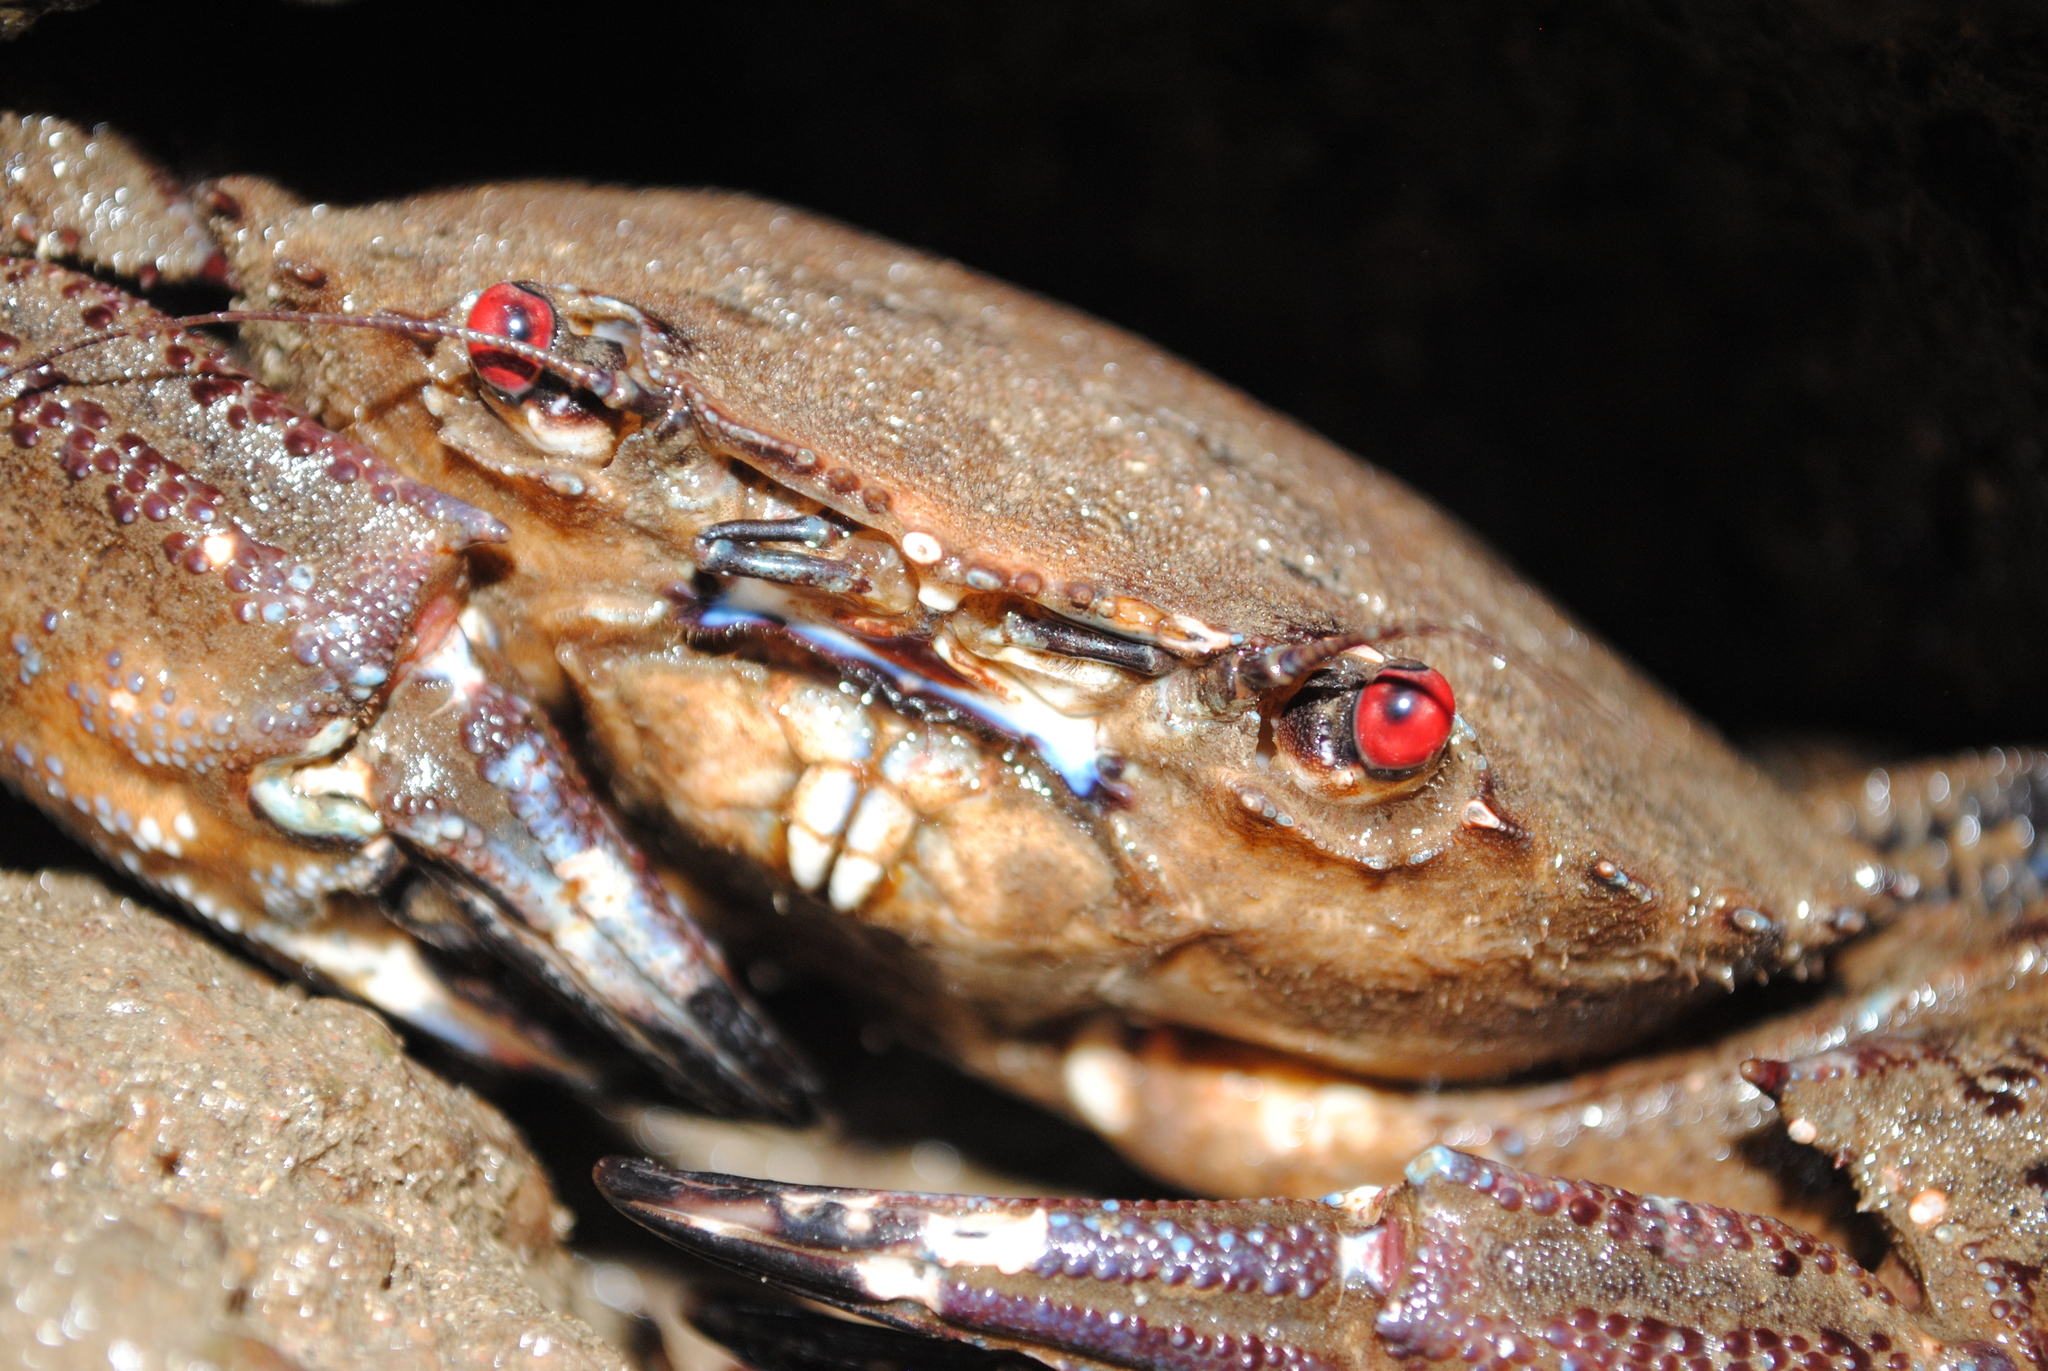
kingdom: Animalia
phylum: Arthropoda
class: Malacostraca
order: Decapoda
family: Polybiidae
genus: Necora
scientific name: Necora puber
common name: Velvet swimming crab
